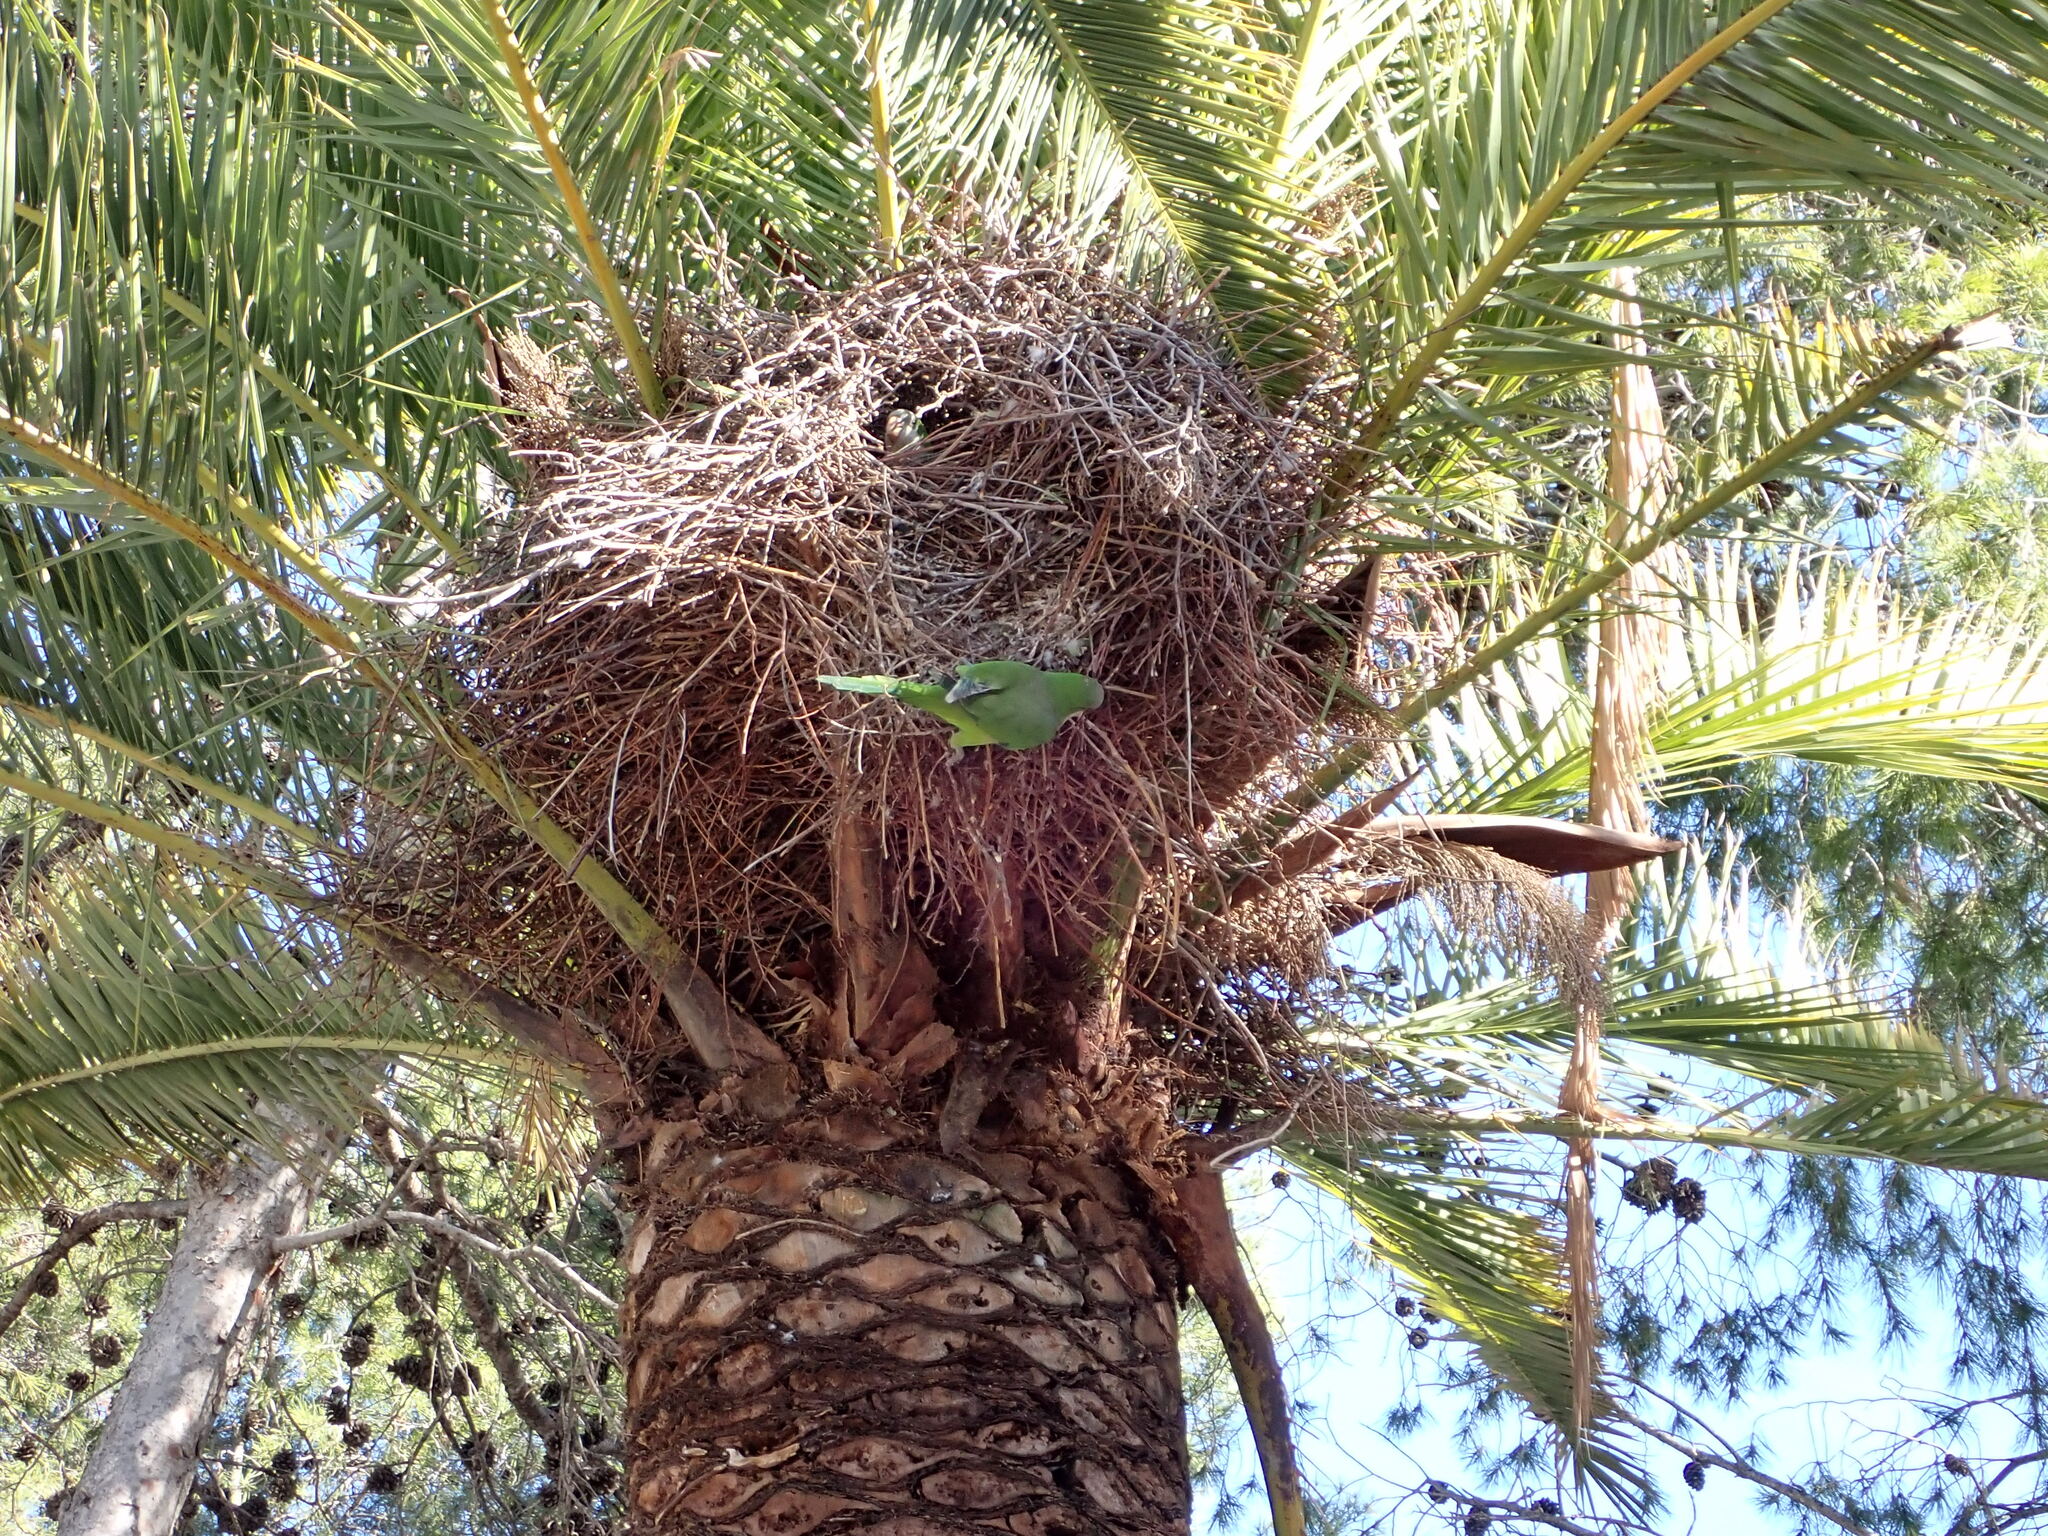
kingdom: Animalia
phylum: Chordata
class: Aves
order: Psittaciformes
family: Psittacidae
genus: Myiopsitta
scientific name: Myiopsitta monachus
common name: Monk parakeet
